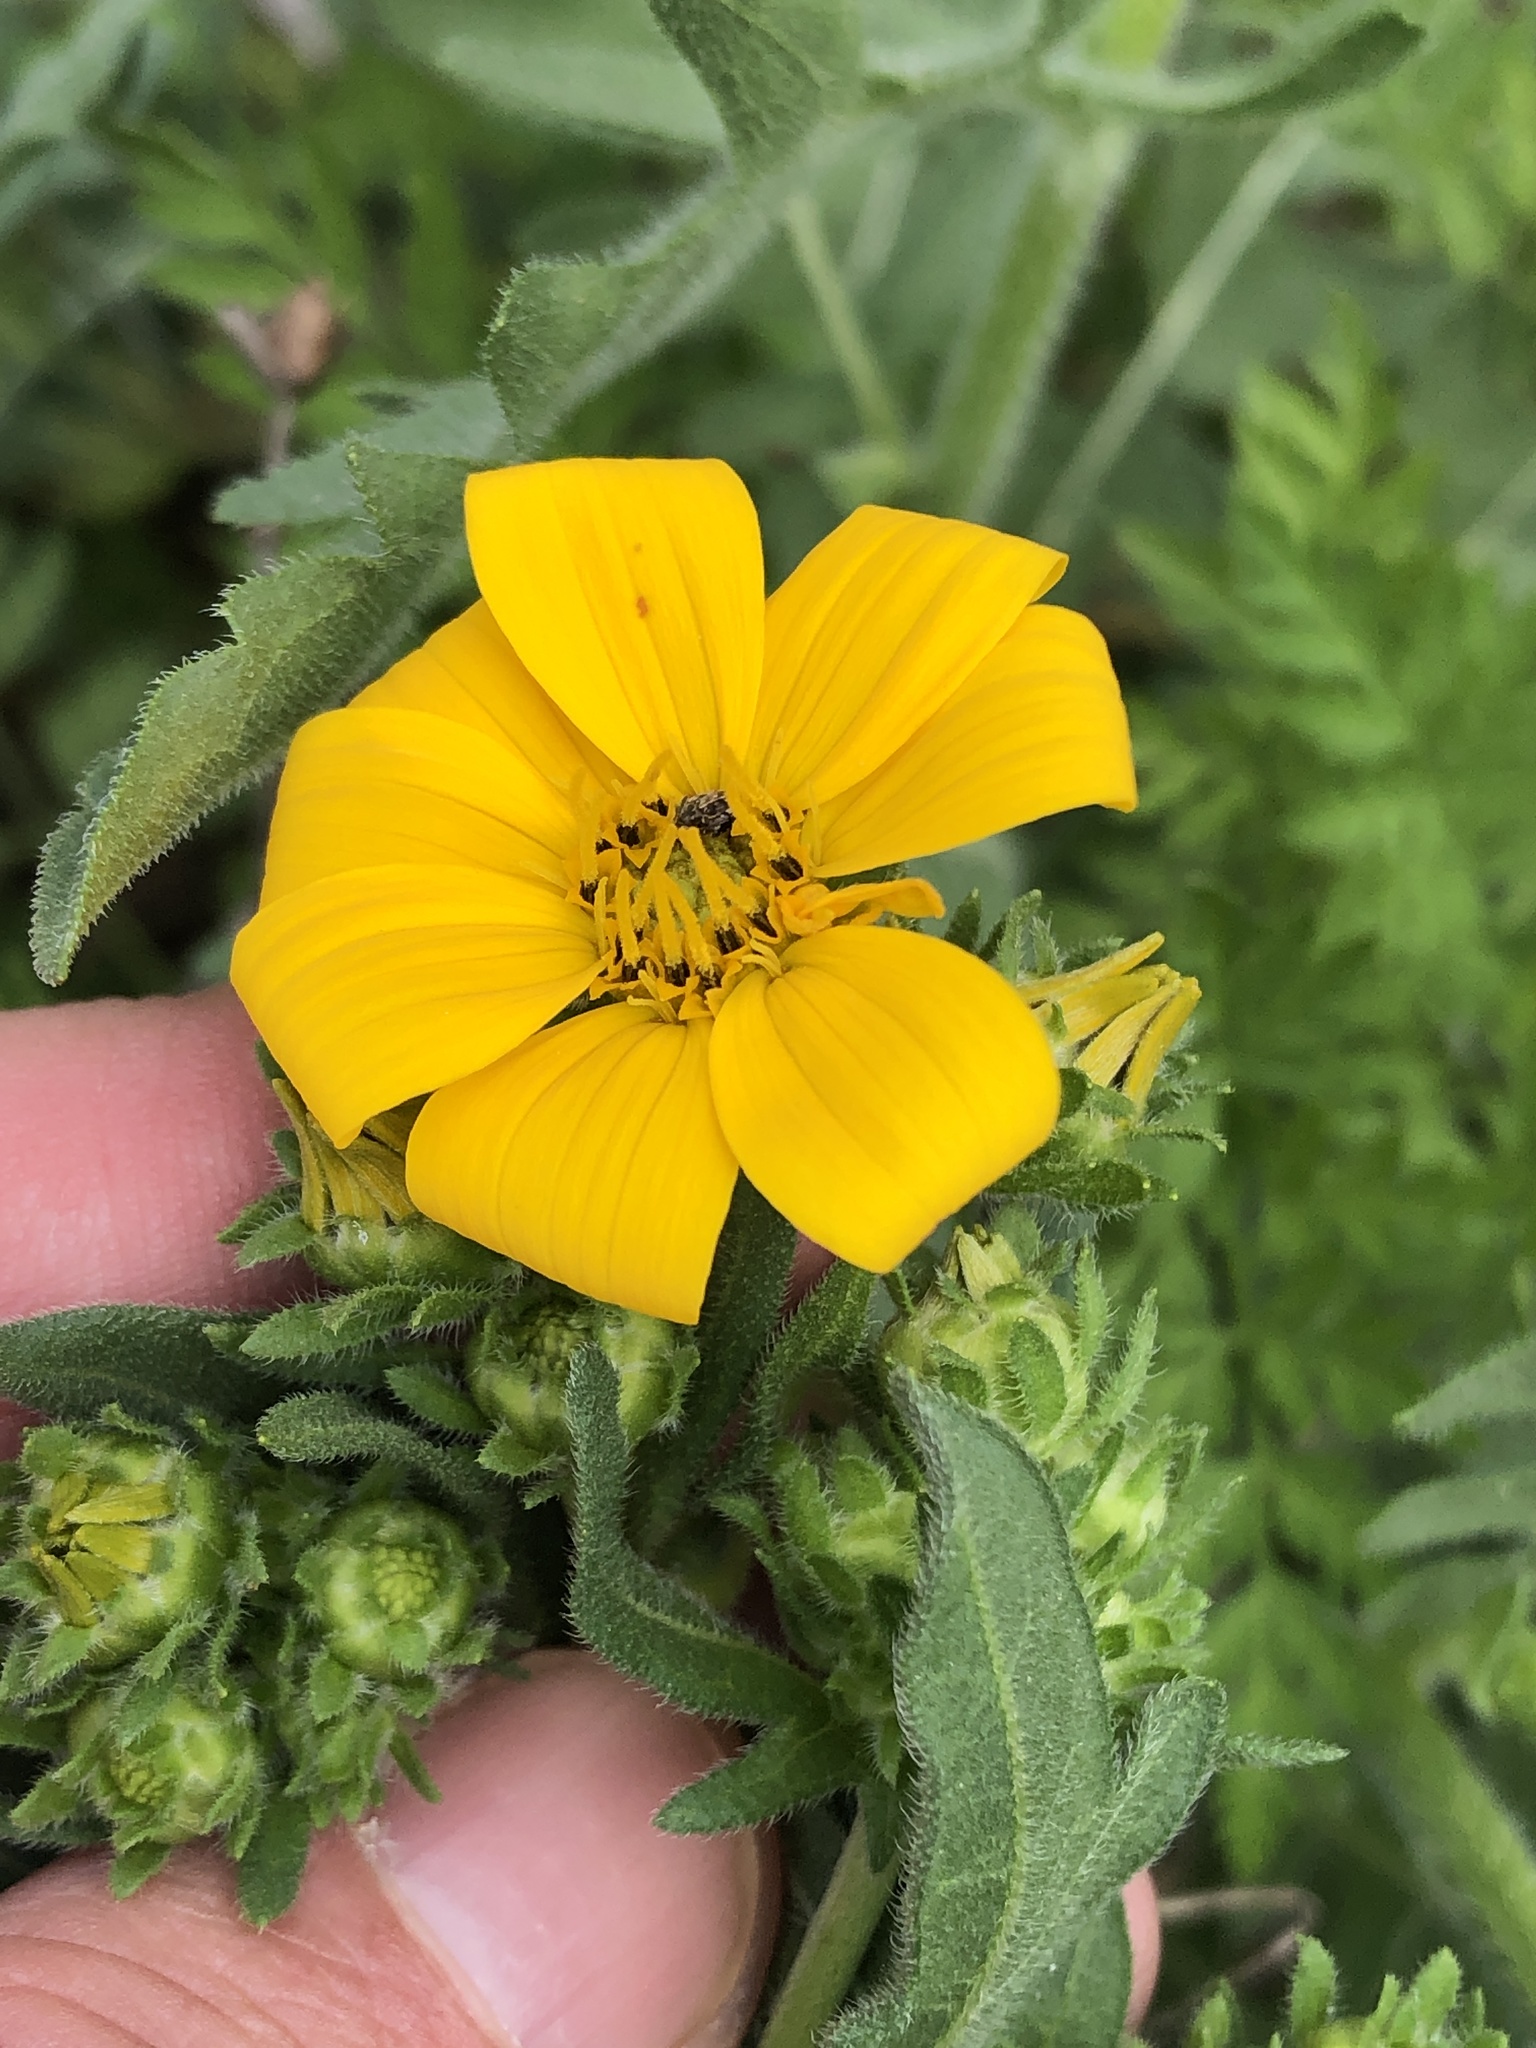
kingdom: Plantae
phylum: Tracheophyta
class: Magnoliopsida
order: Asterales
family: Asteraceae
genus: Engelmannia
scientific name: Engelmannia peristenia
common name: Engelmann's daisy
